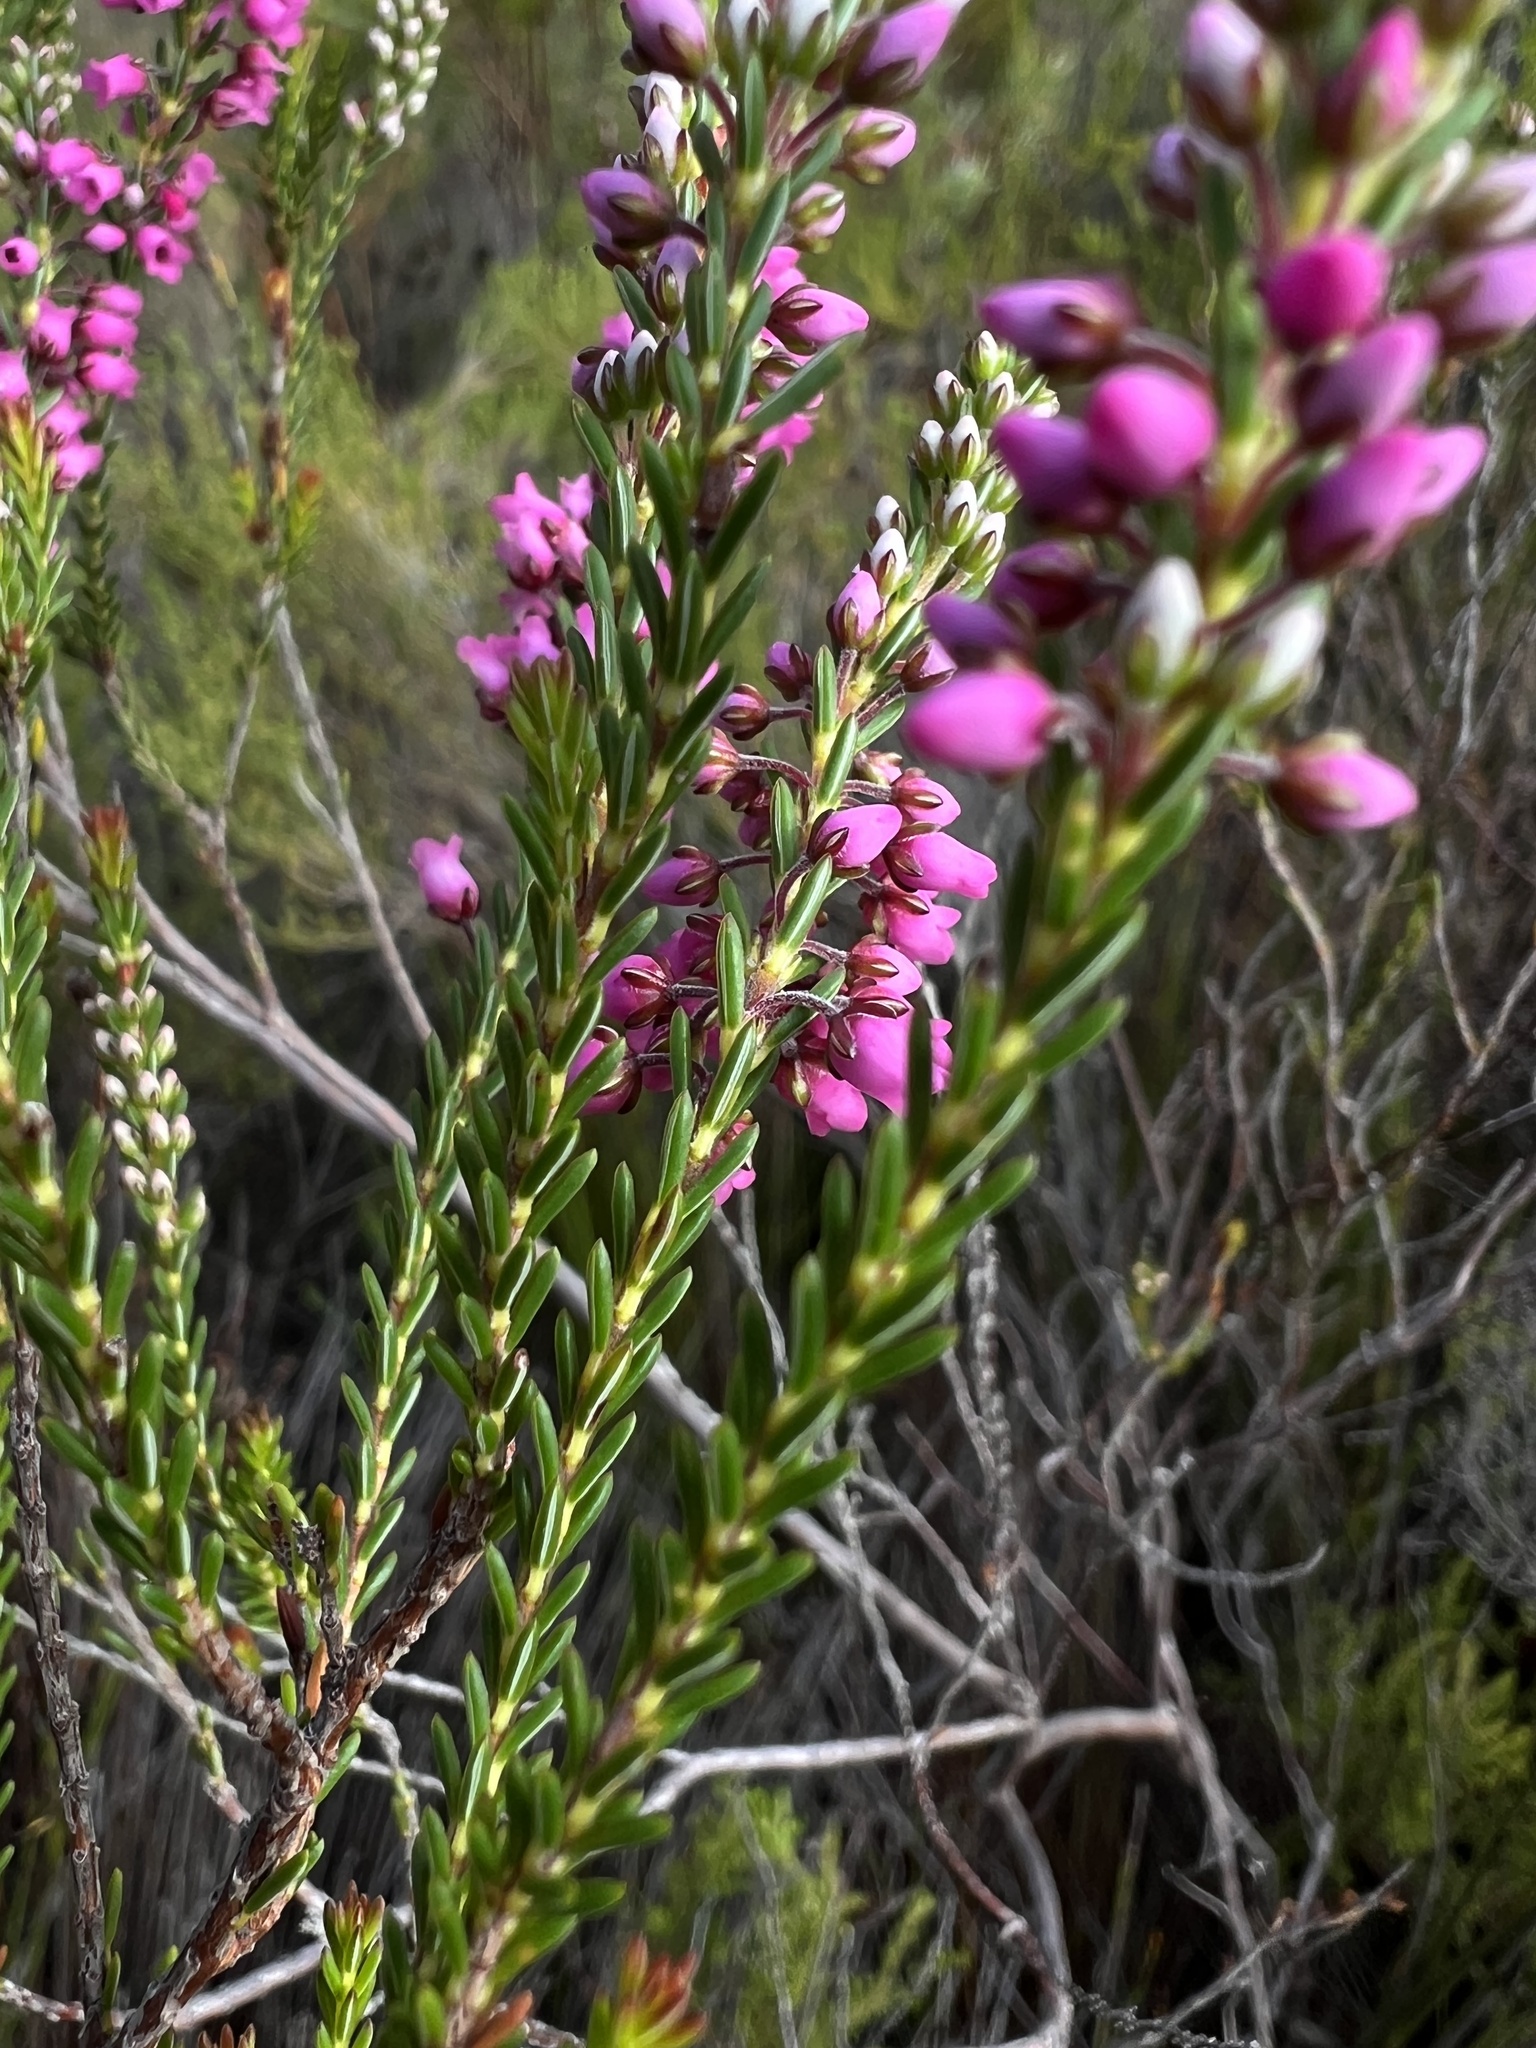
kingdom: Plantae
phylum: Tracheophyta
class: Magnoliopsida
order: Ericales
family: Ericaceae
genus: Erica
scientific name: Erica pulchella
